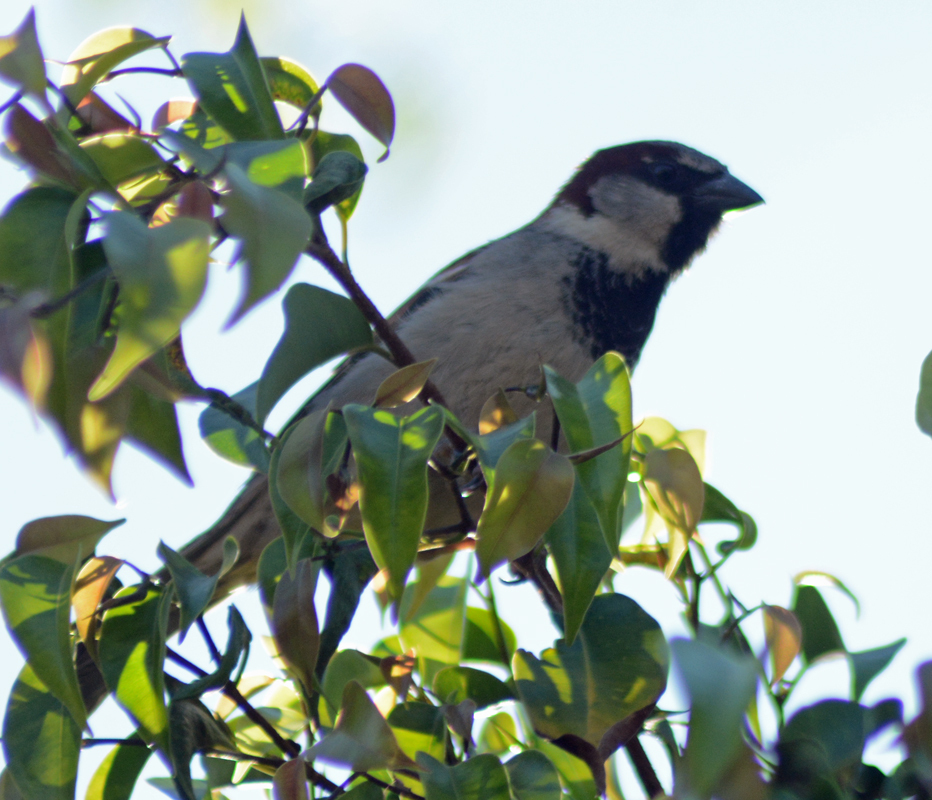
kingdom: Animalia
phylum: Chordata
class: Aves
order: Passeriformes
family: Passeridae
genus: Passer
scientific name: Passer domesticus
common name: House sparrow
